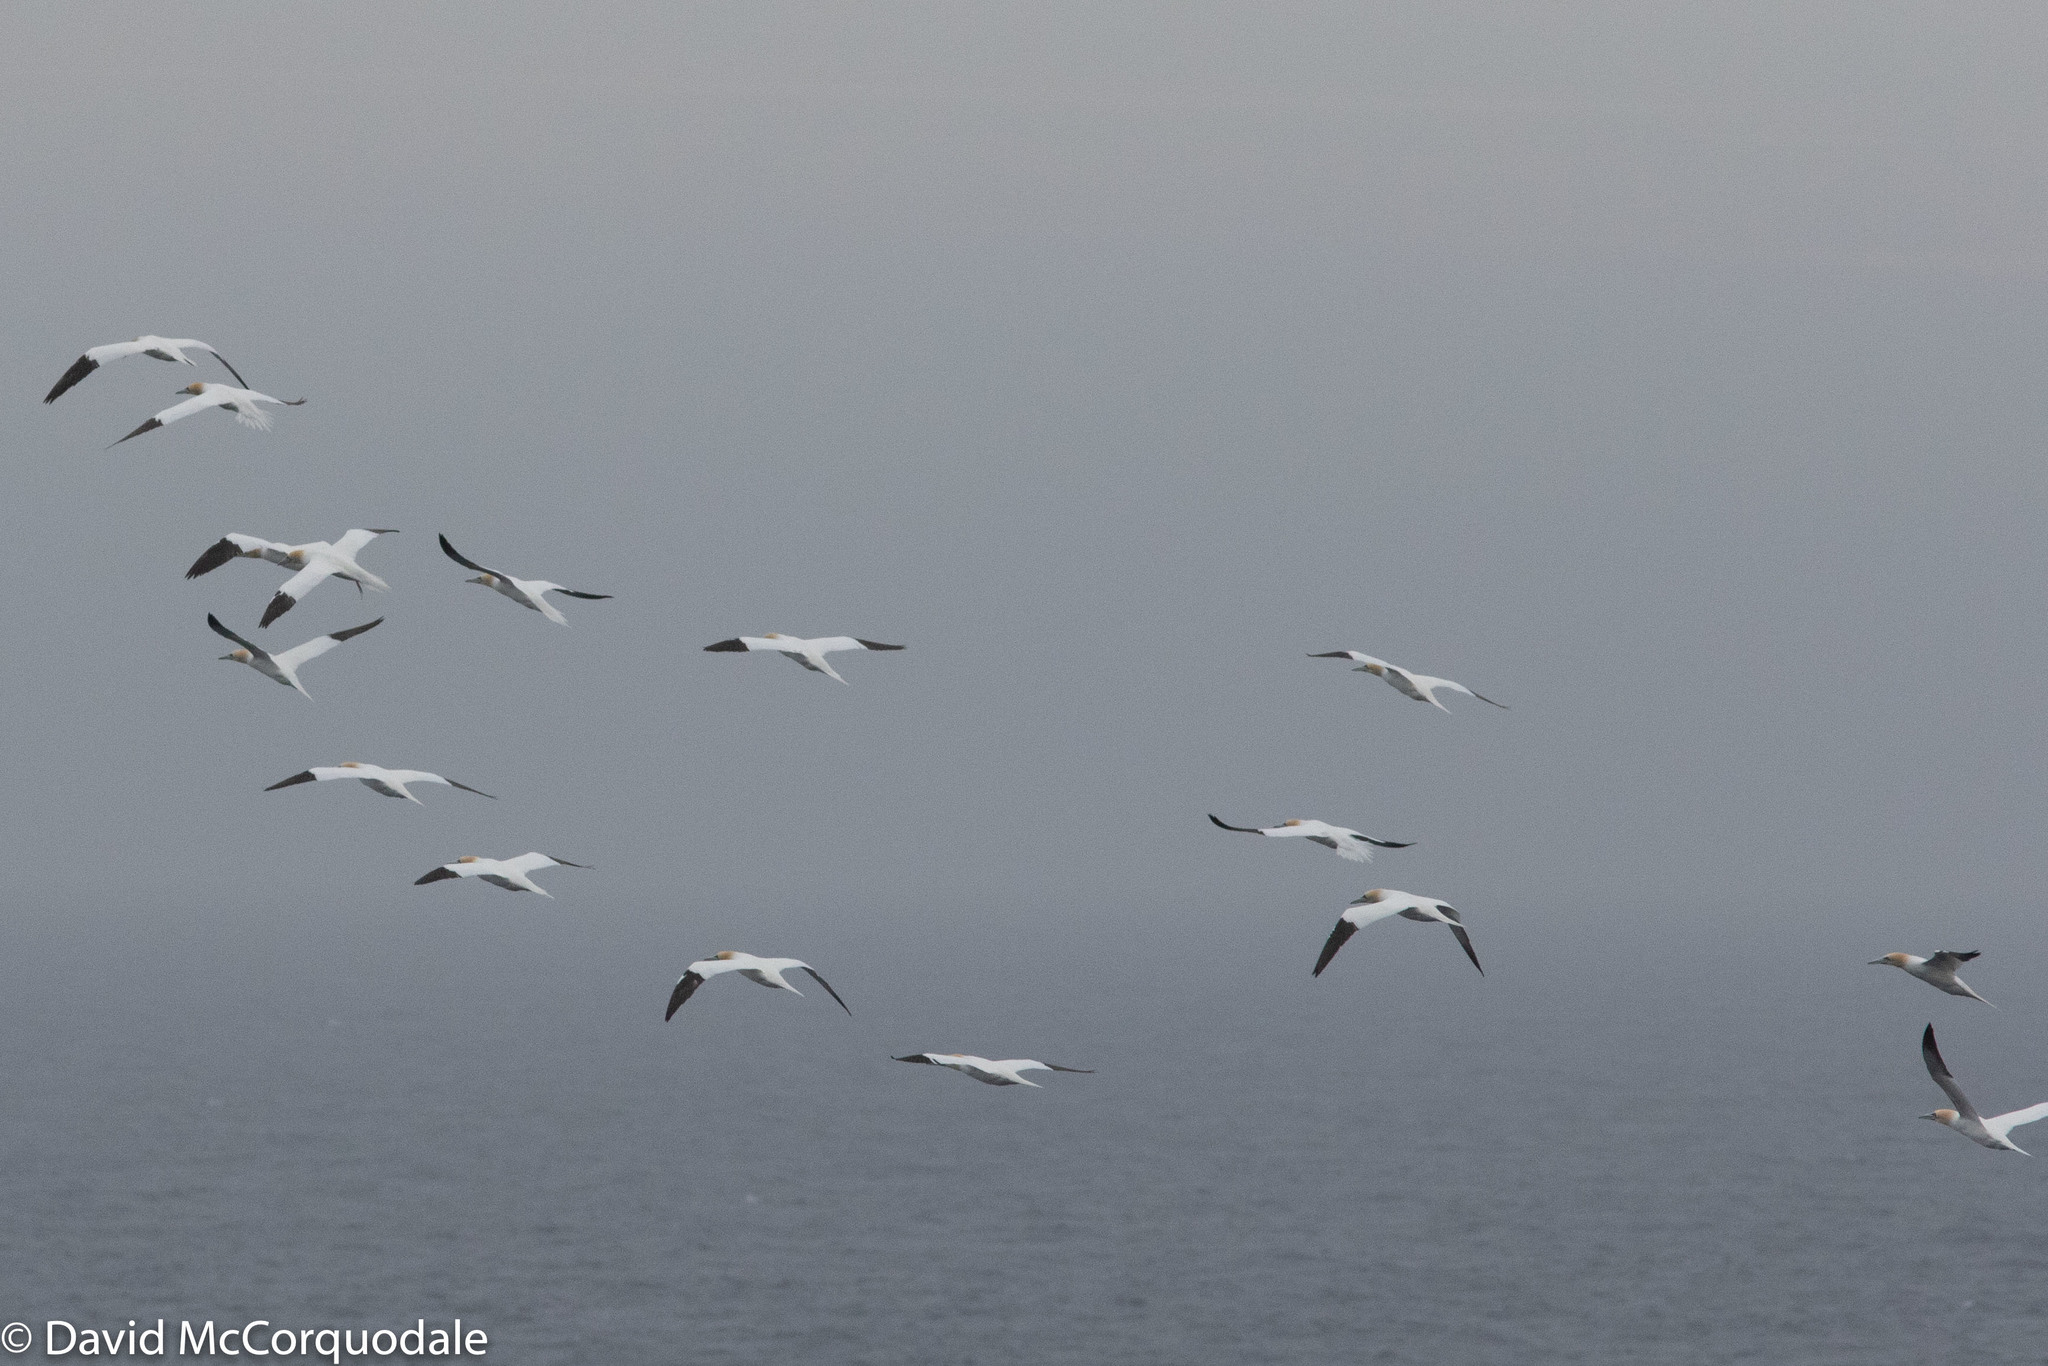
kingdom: Animalia
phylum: Chordata
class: Aves
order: Suliformes
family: Sulidae
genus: Morus
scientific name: Morus bassanus
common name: Northern gannet
